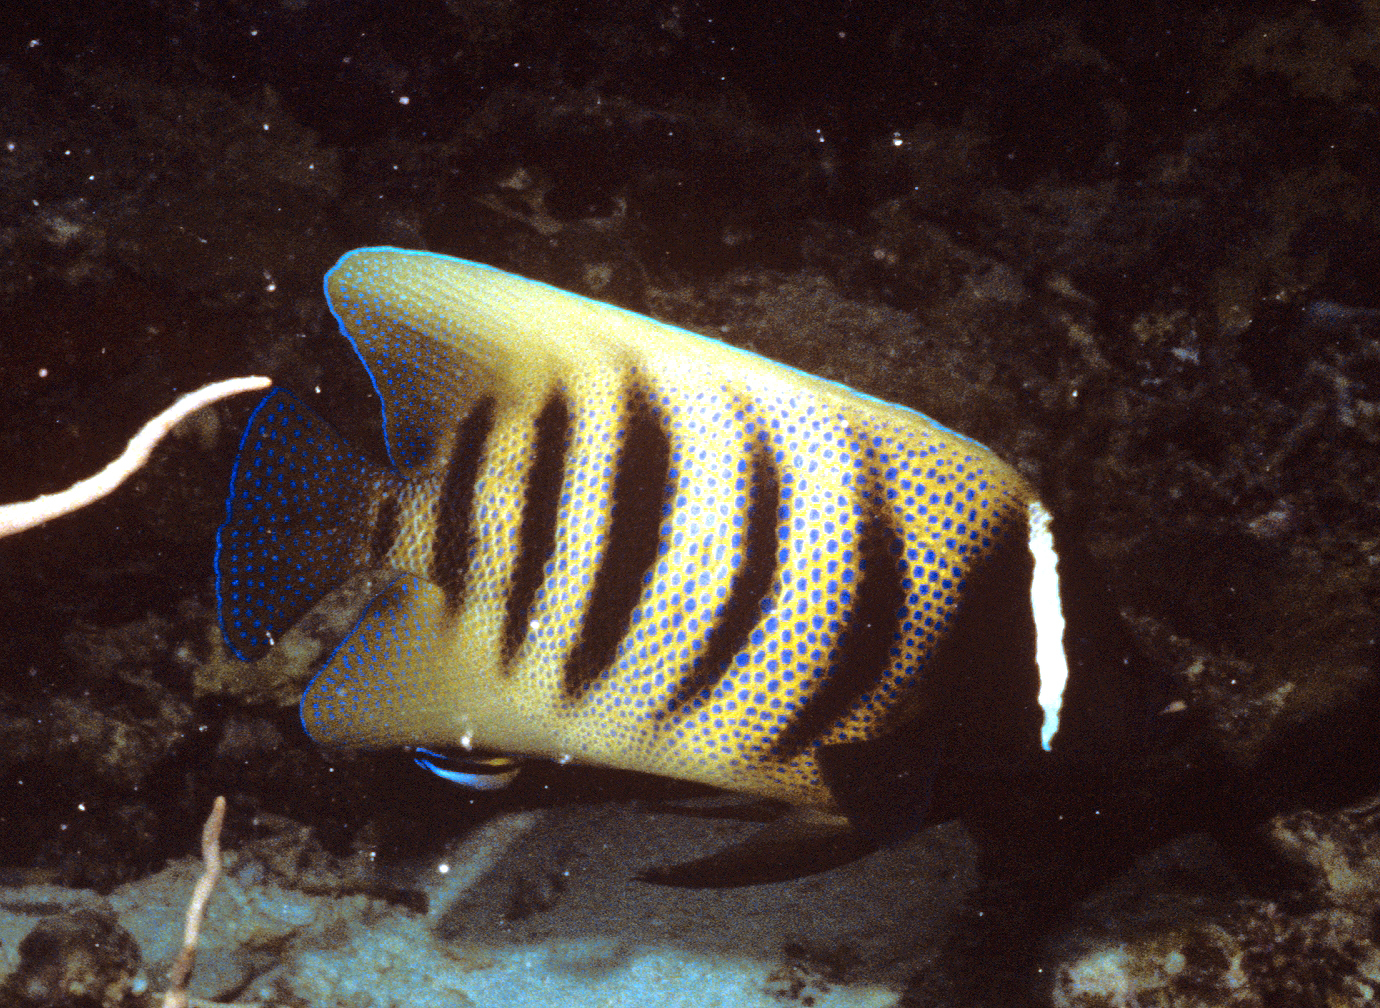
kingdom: Animalia
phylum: Chordata
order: Perciformes
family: Pomacanthidae
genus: Pomacanthus
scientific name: Pomacanthus sexstriatus
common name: Six-banded angelfish
